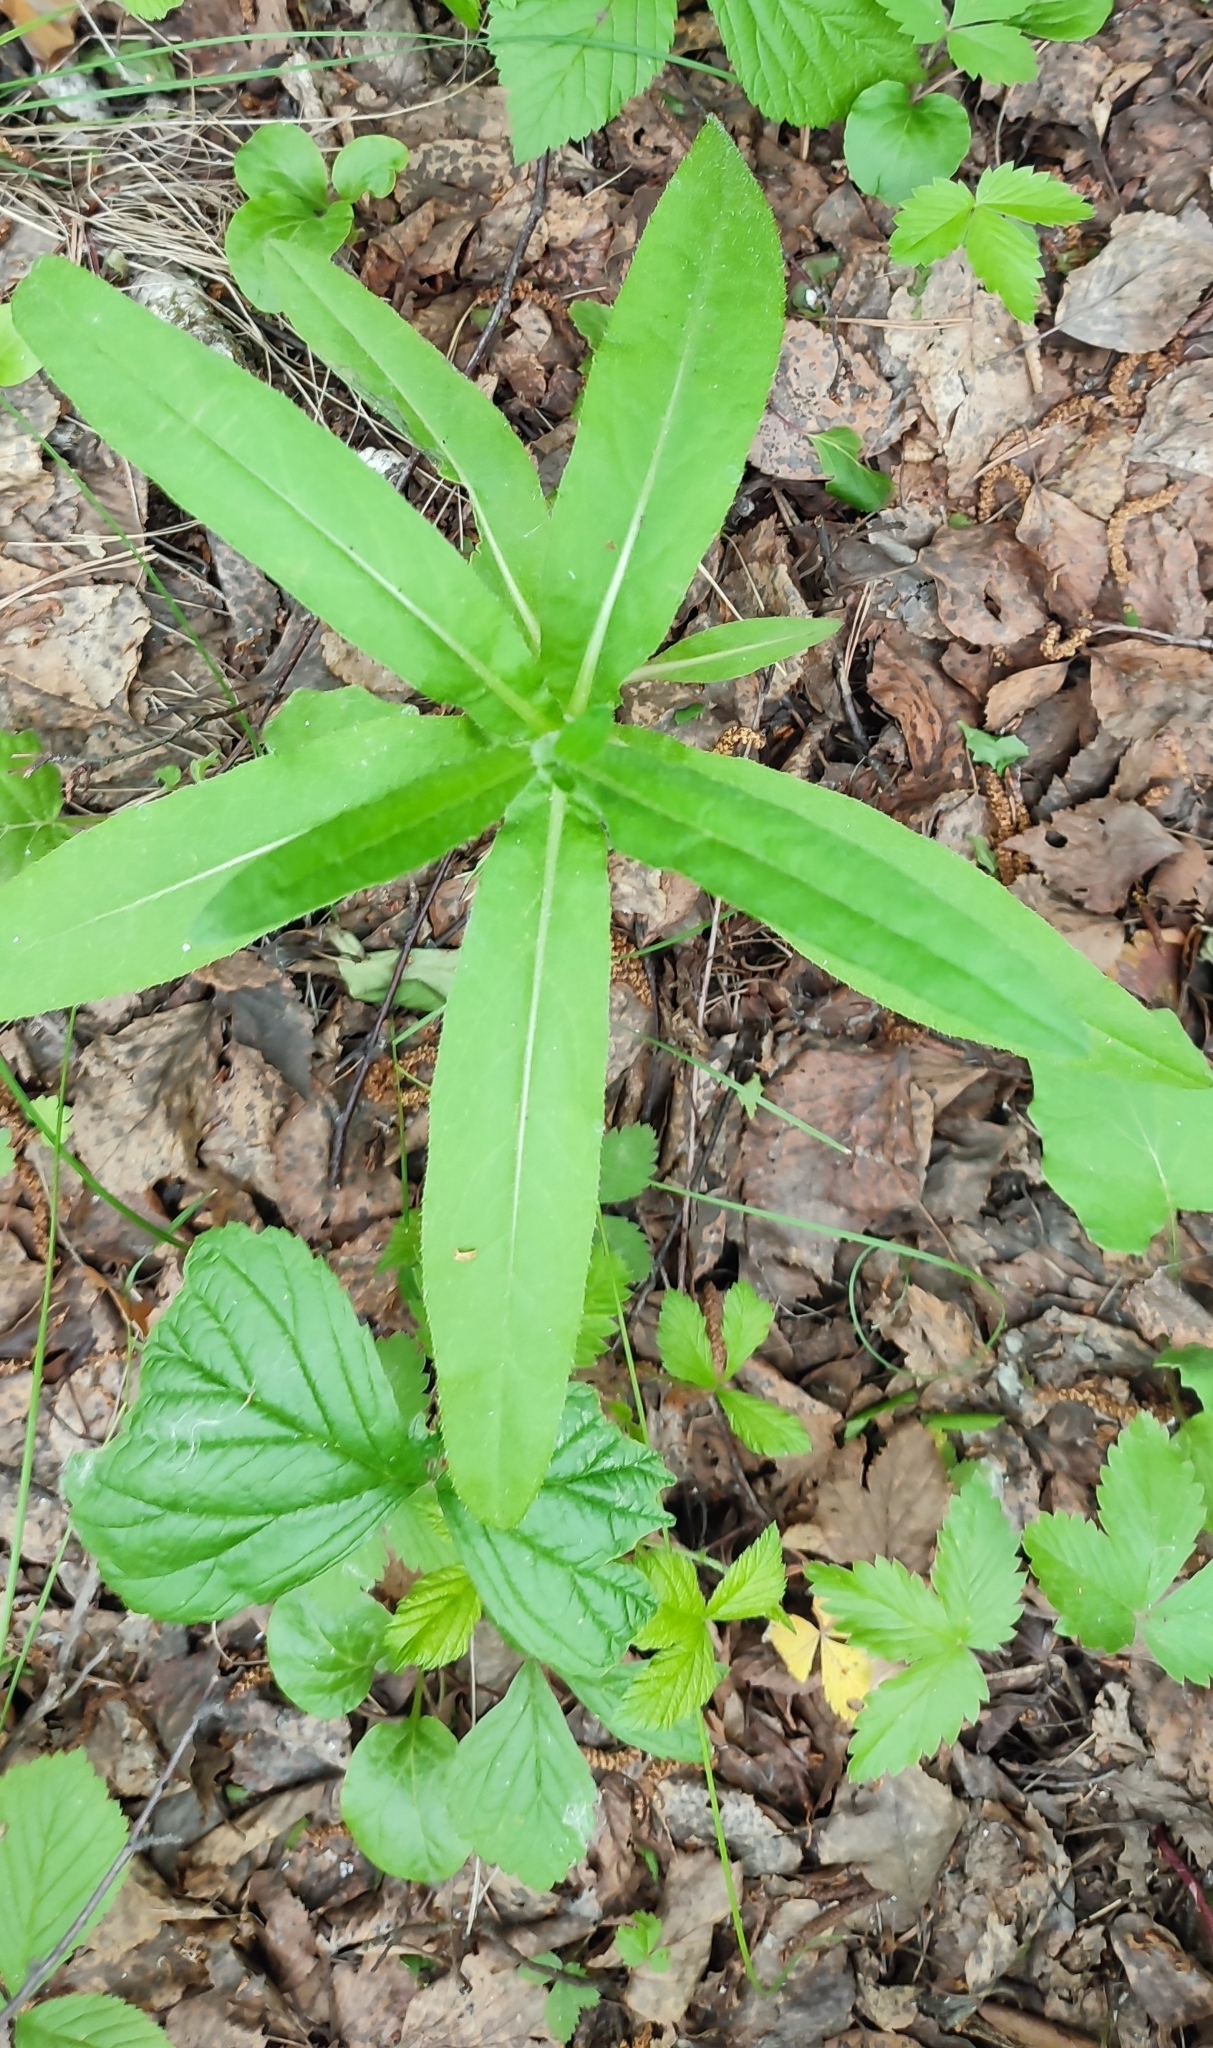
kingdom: Plantae
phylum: Tracheophyta
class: Magnoliopsida
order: Asterales
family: Asteraceae
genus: Cirsium
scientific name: Cirsium arvense
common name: Creeping thistle
